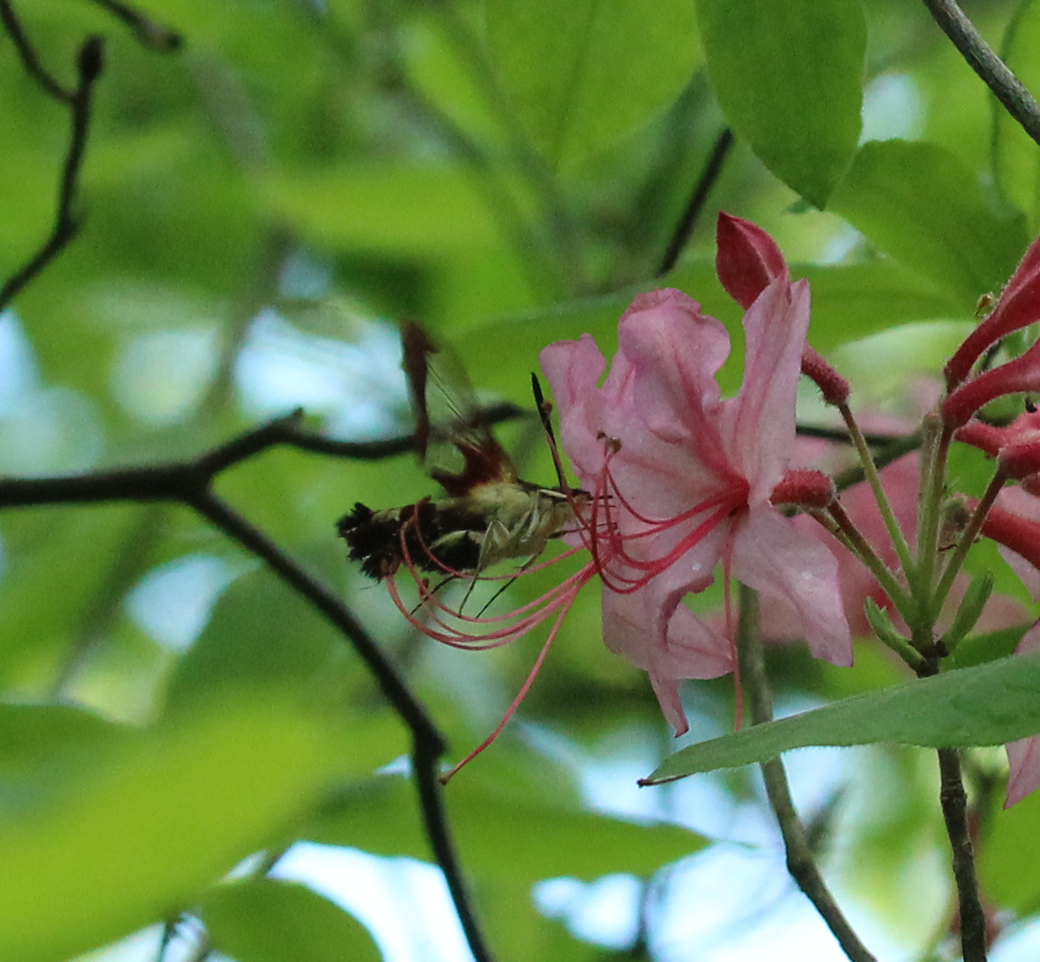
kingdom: Animalia
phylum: Arthropoda
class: Insecta
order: Lepidoptera
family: Sphingidae
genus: Hemaris
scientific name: Hemaris thysbe
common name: Common clear-wing
